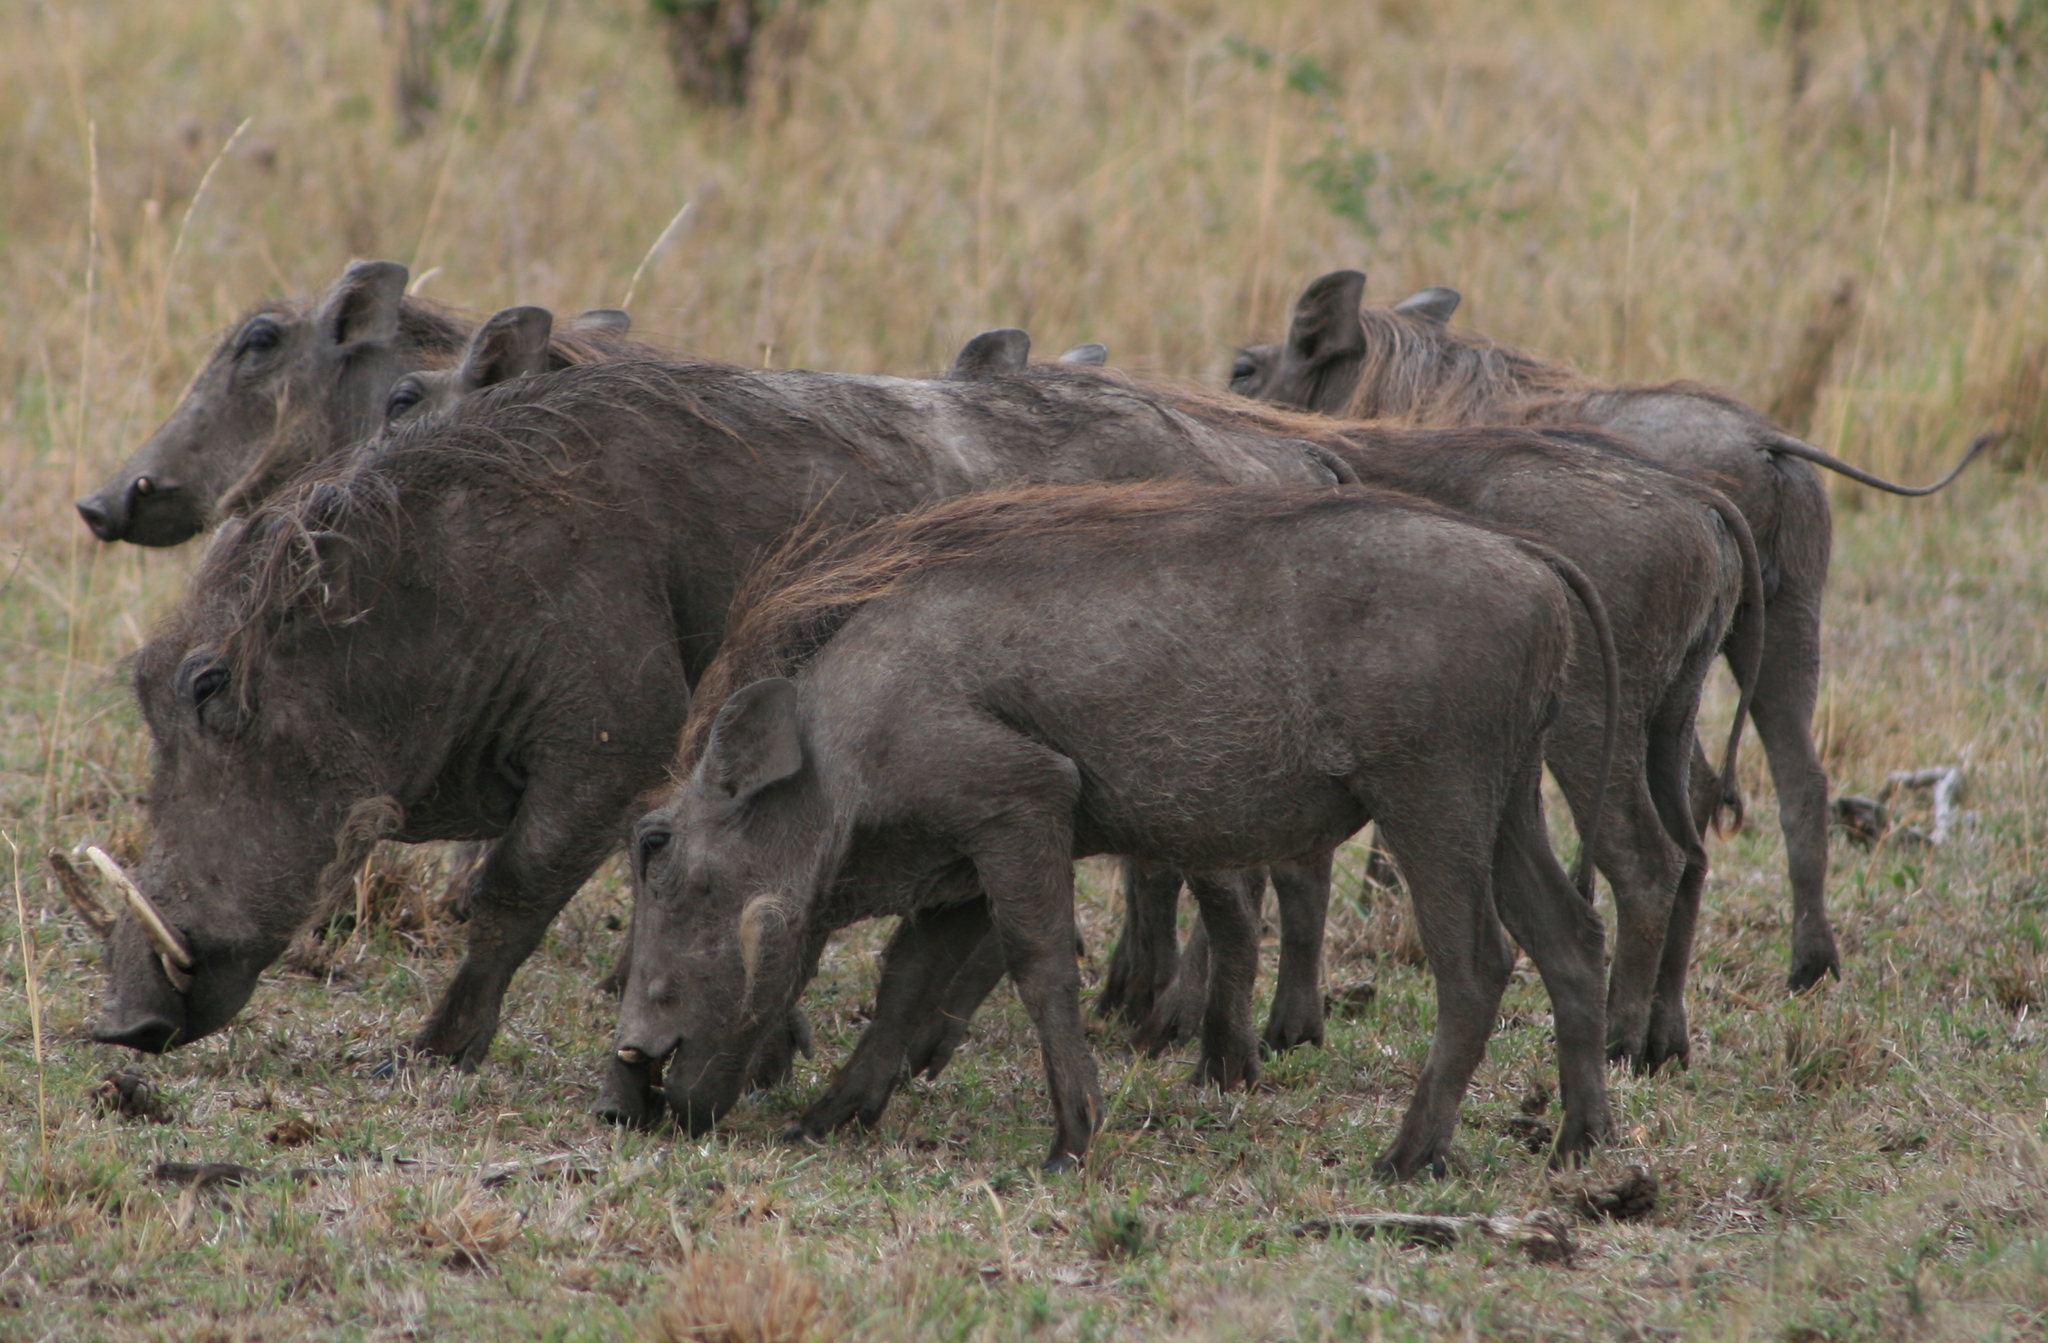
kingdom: Animalia
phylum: Chordata
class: Mammalia
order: Artiodactyla
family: Suidae
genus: Phacochoerus
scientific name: Phacochoerus africanus
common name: Common warthog
